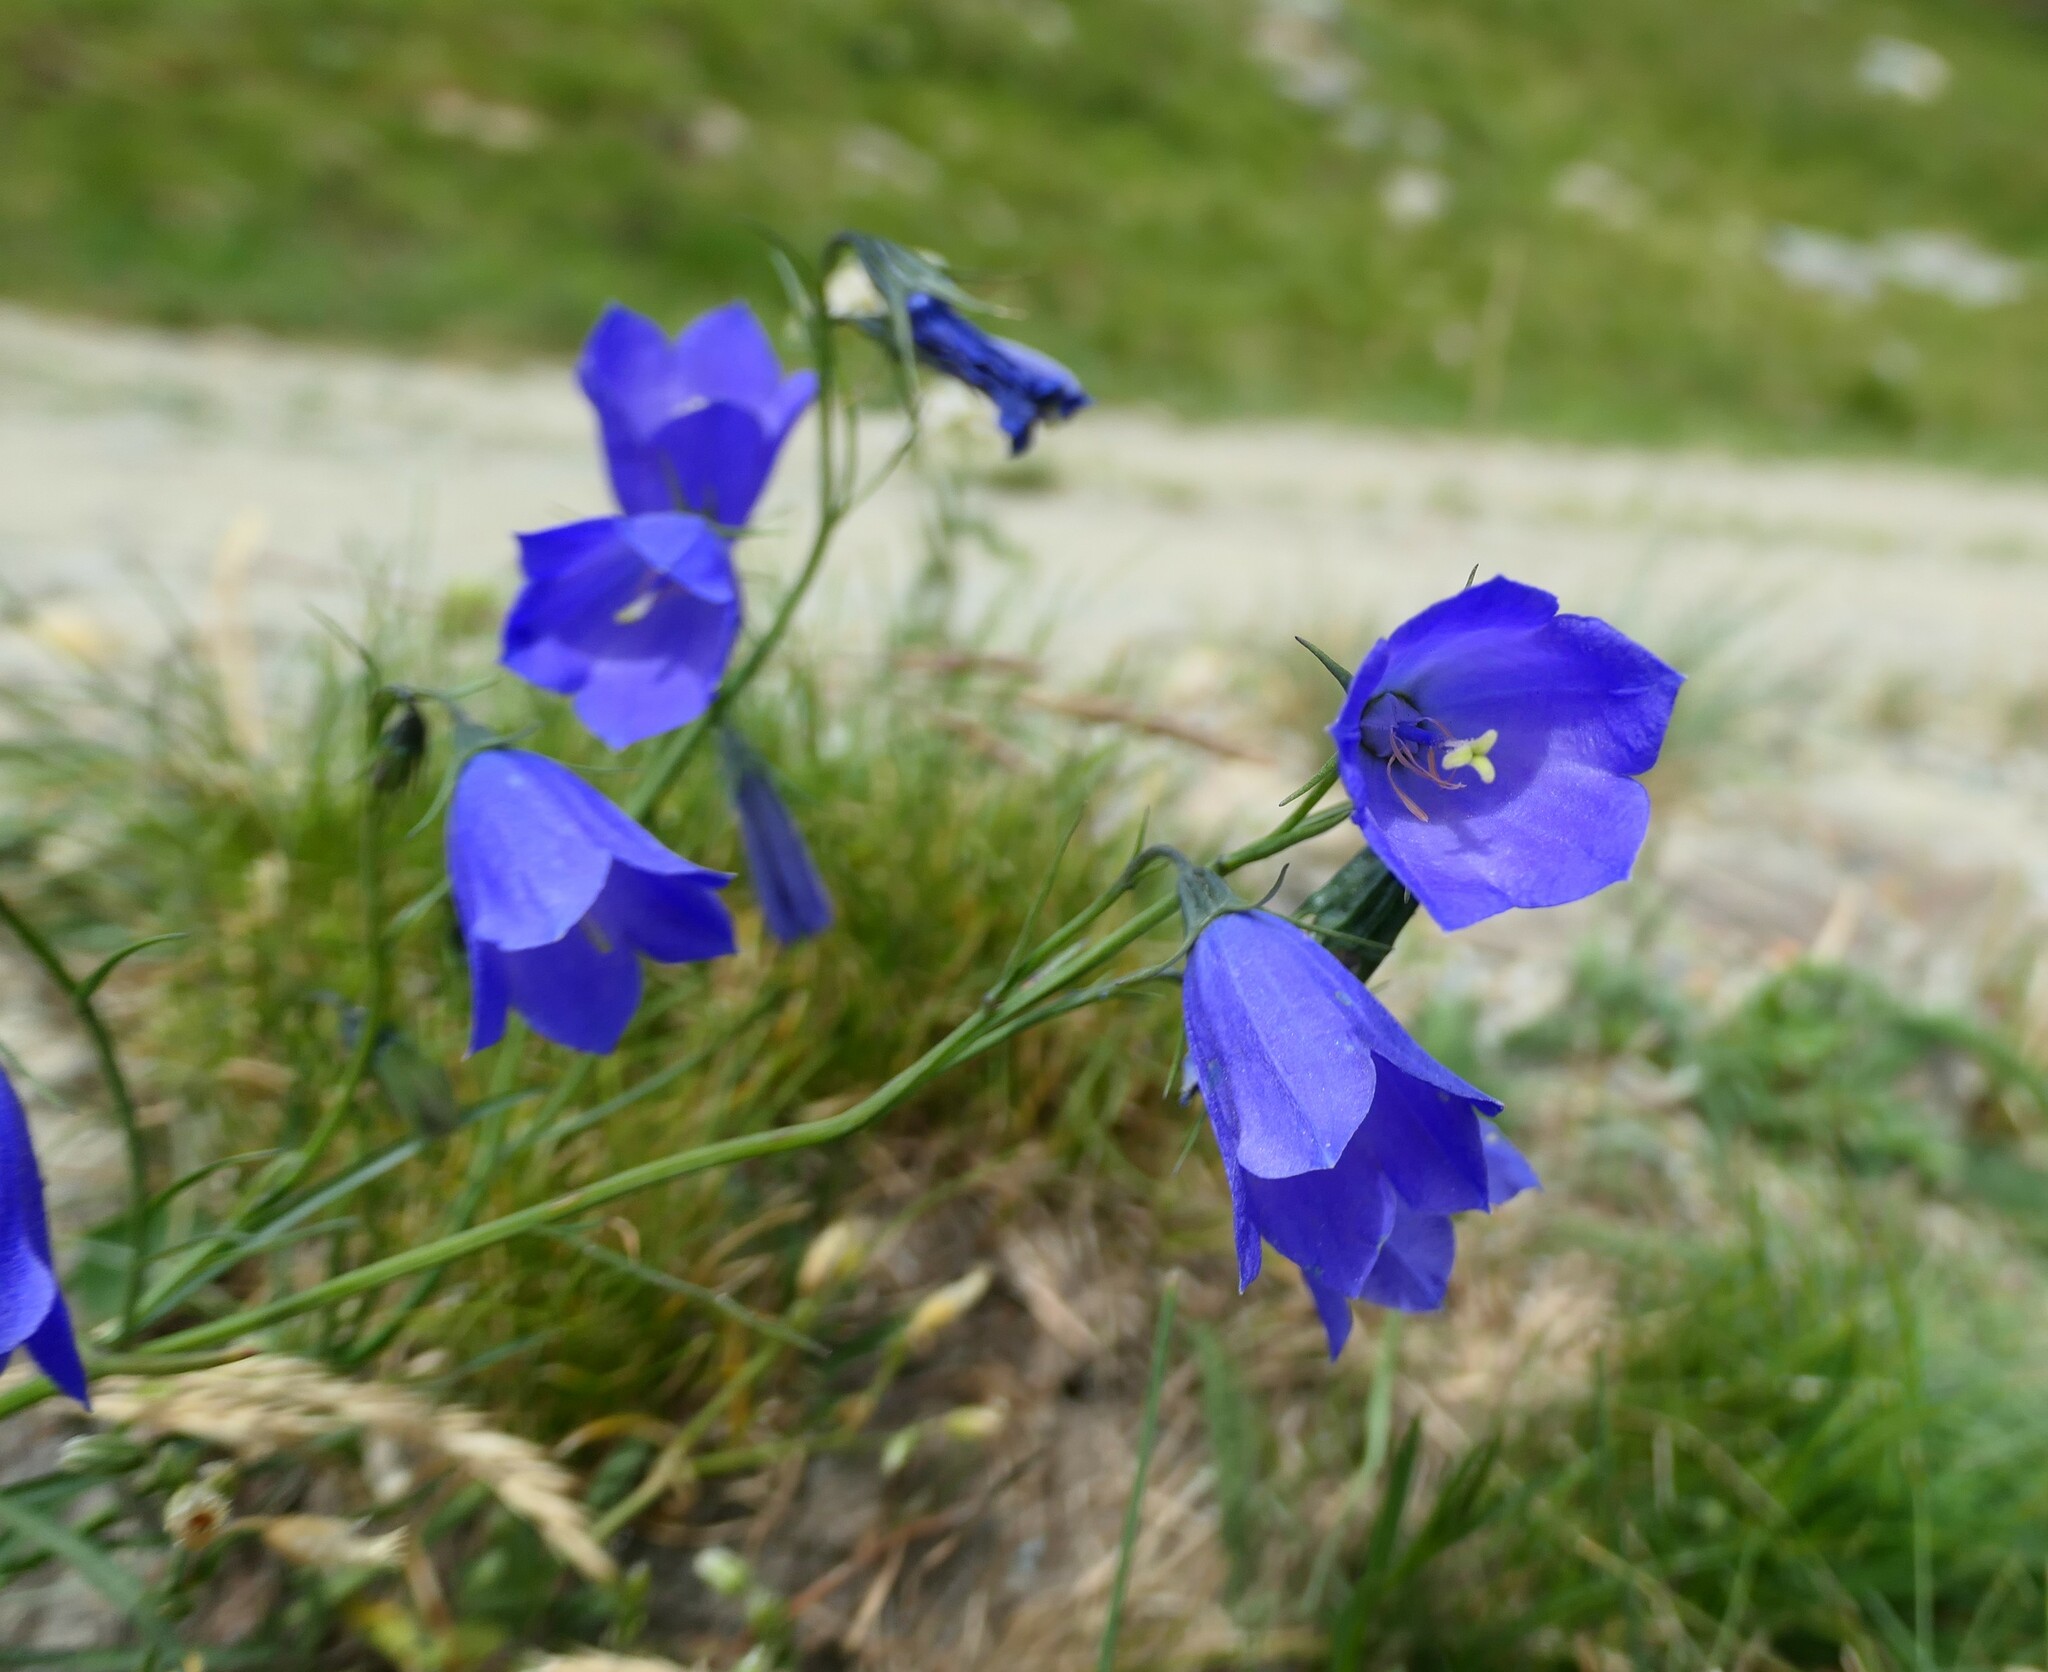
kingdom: Plantae
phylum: Tracheophyta
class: Magnoliopsida
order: Asterales
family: Campanulaceae
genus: Campanula
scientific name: Campanula scheuchzeri
